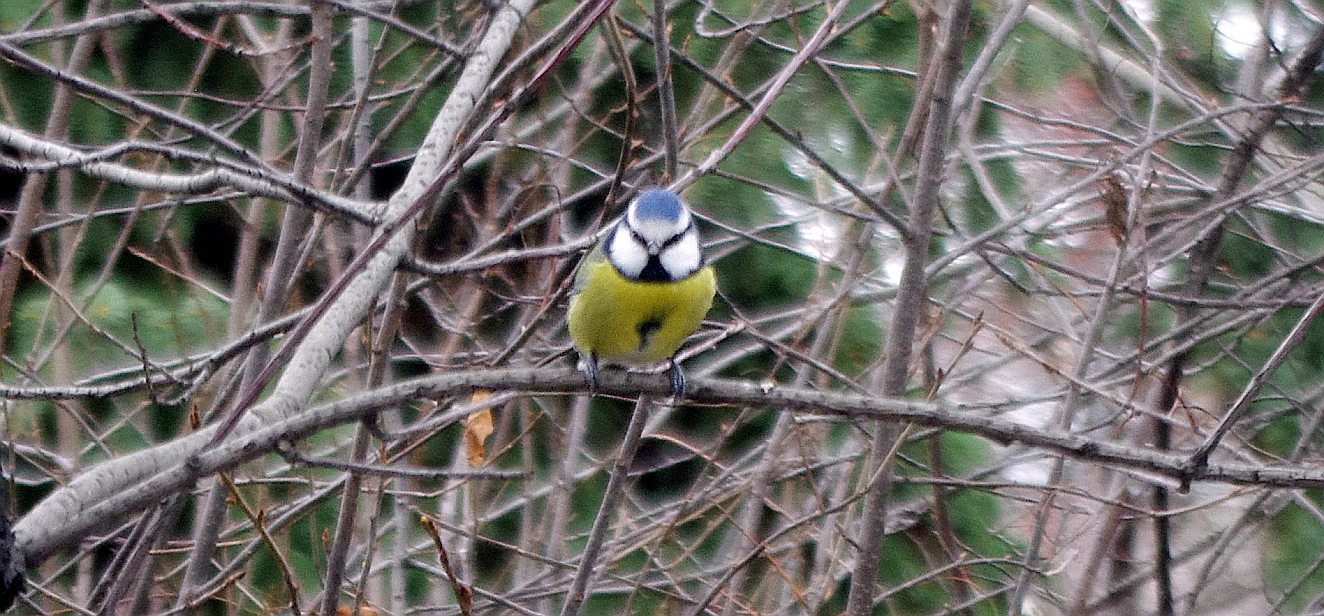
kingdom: Animalia
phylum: Chordata
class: Aves
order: Passeriformes
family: Paridae
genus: Cyanistes
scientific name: Cyanistes caeruleus
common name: Eurasian blue tit
